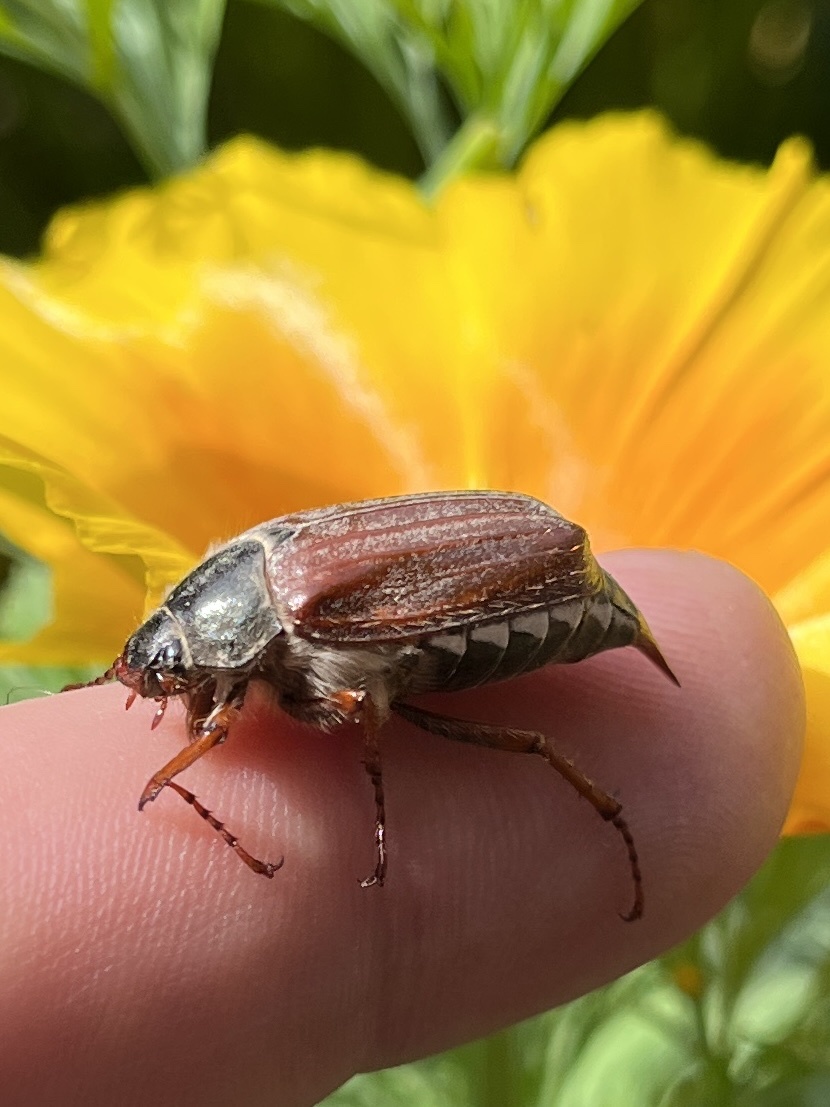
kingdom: Animalia
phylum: Arthropoda
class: Insecta
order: Coleoptera
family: Scarabaeidae
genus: Melolontha
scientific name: Melolontha melolontha
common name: Cockchafer maybeetle
